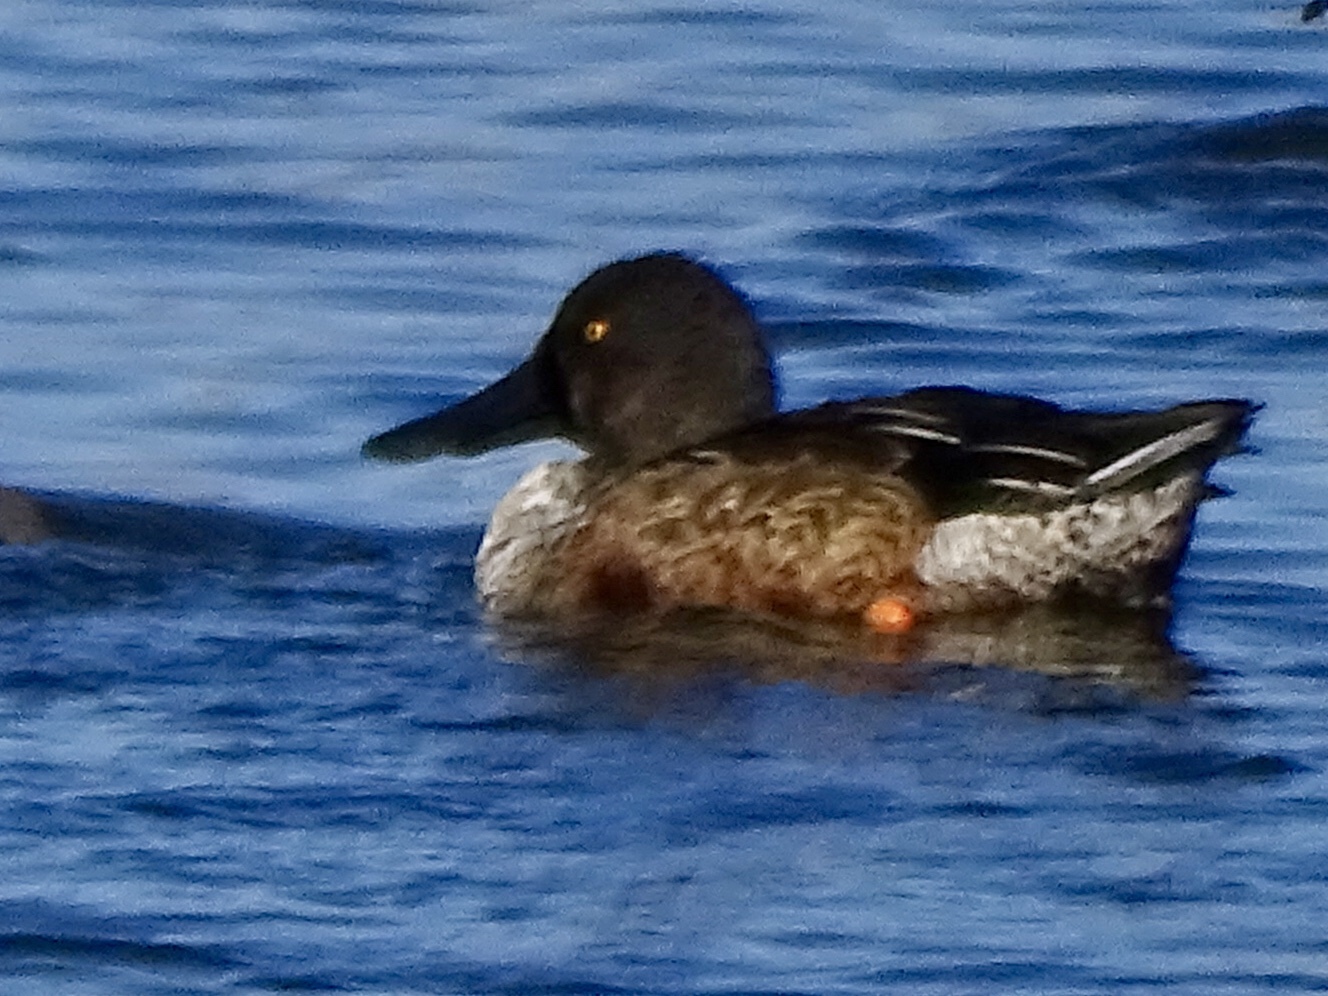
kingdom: Animalia
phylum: Chordata
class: Aves
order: Anseriformes
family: Anatidae
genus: Spatula
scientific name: Spatula clypeata
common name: Northern shoveler
